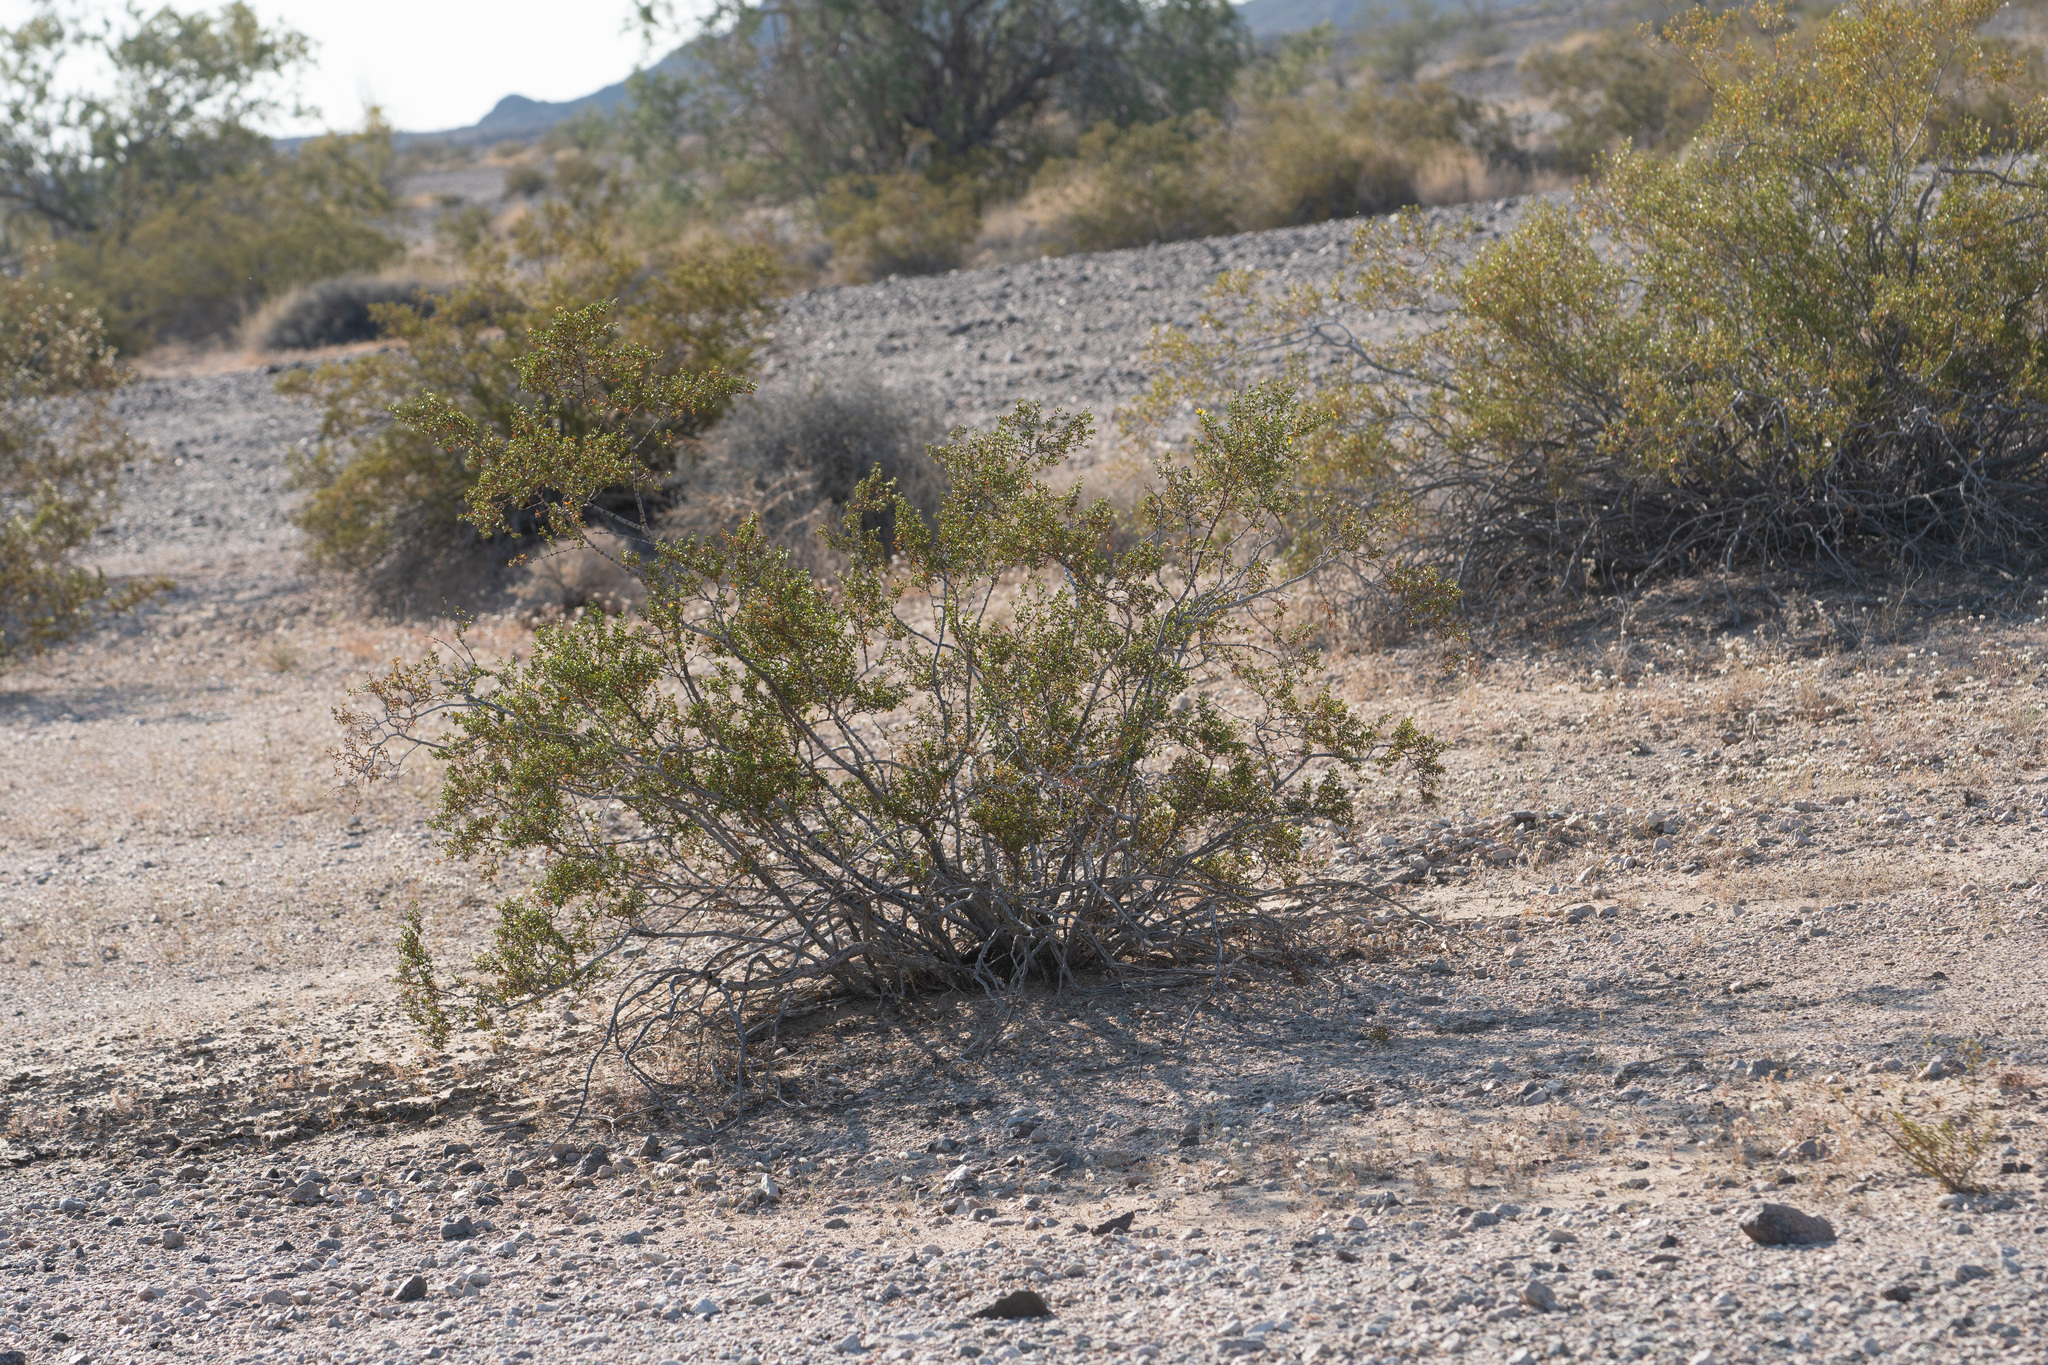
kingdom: Plantae
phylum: Tracheophyta
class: Magnoliopsida
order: Zygophyllales
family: Zygophyllaceae
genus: Larrea
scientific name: Larrea tridentata
